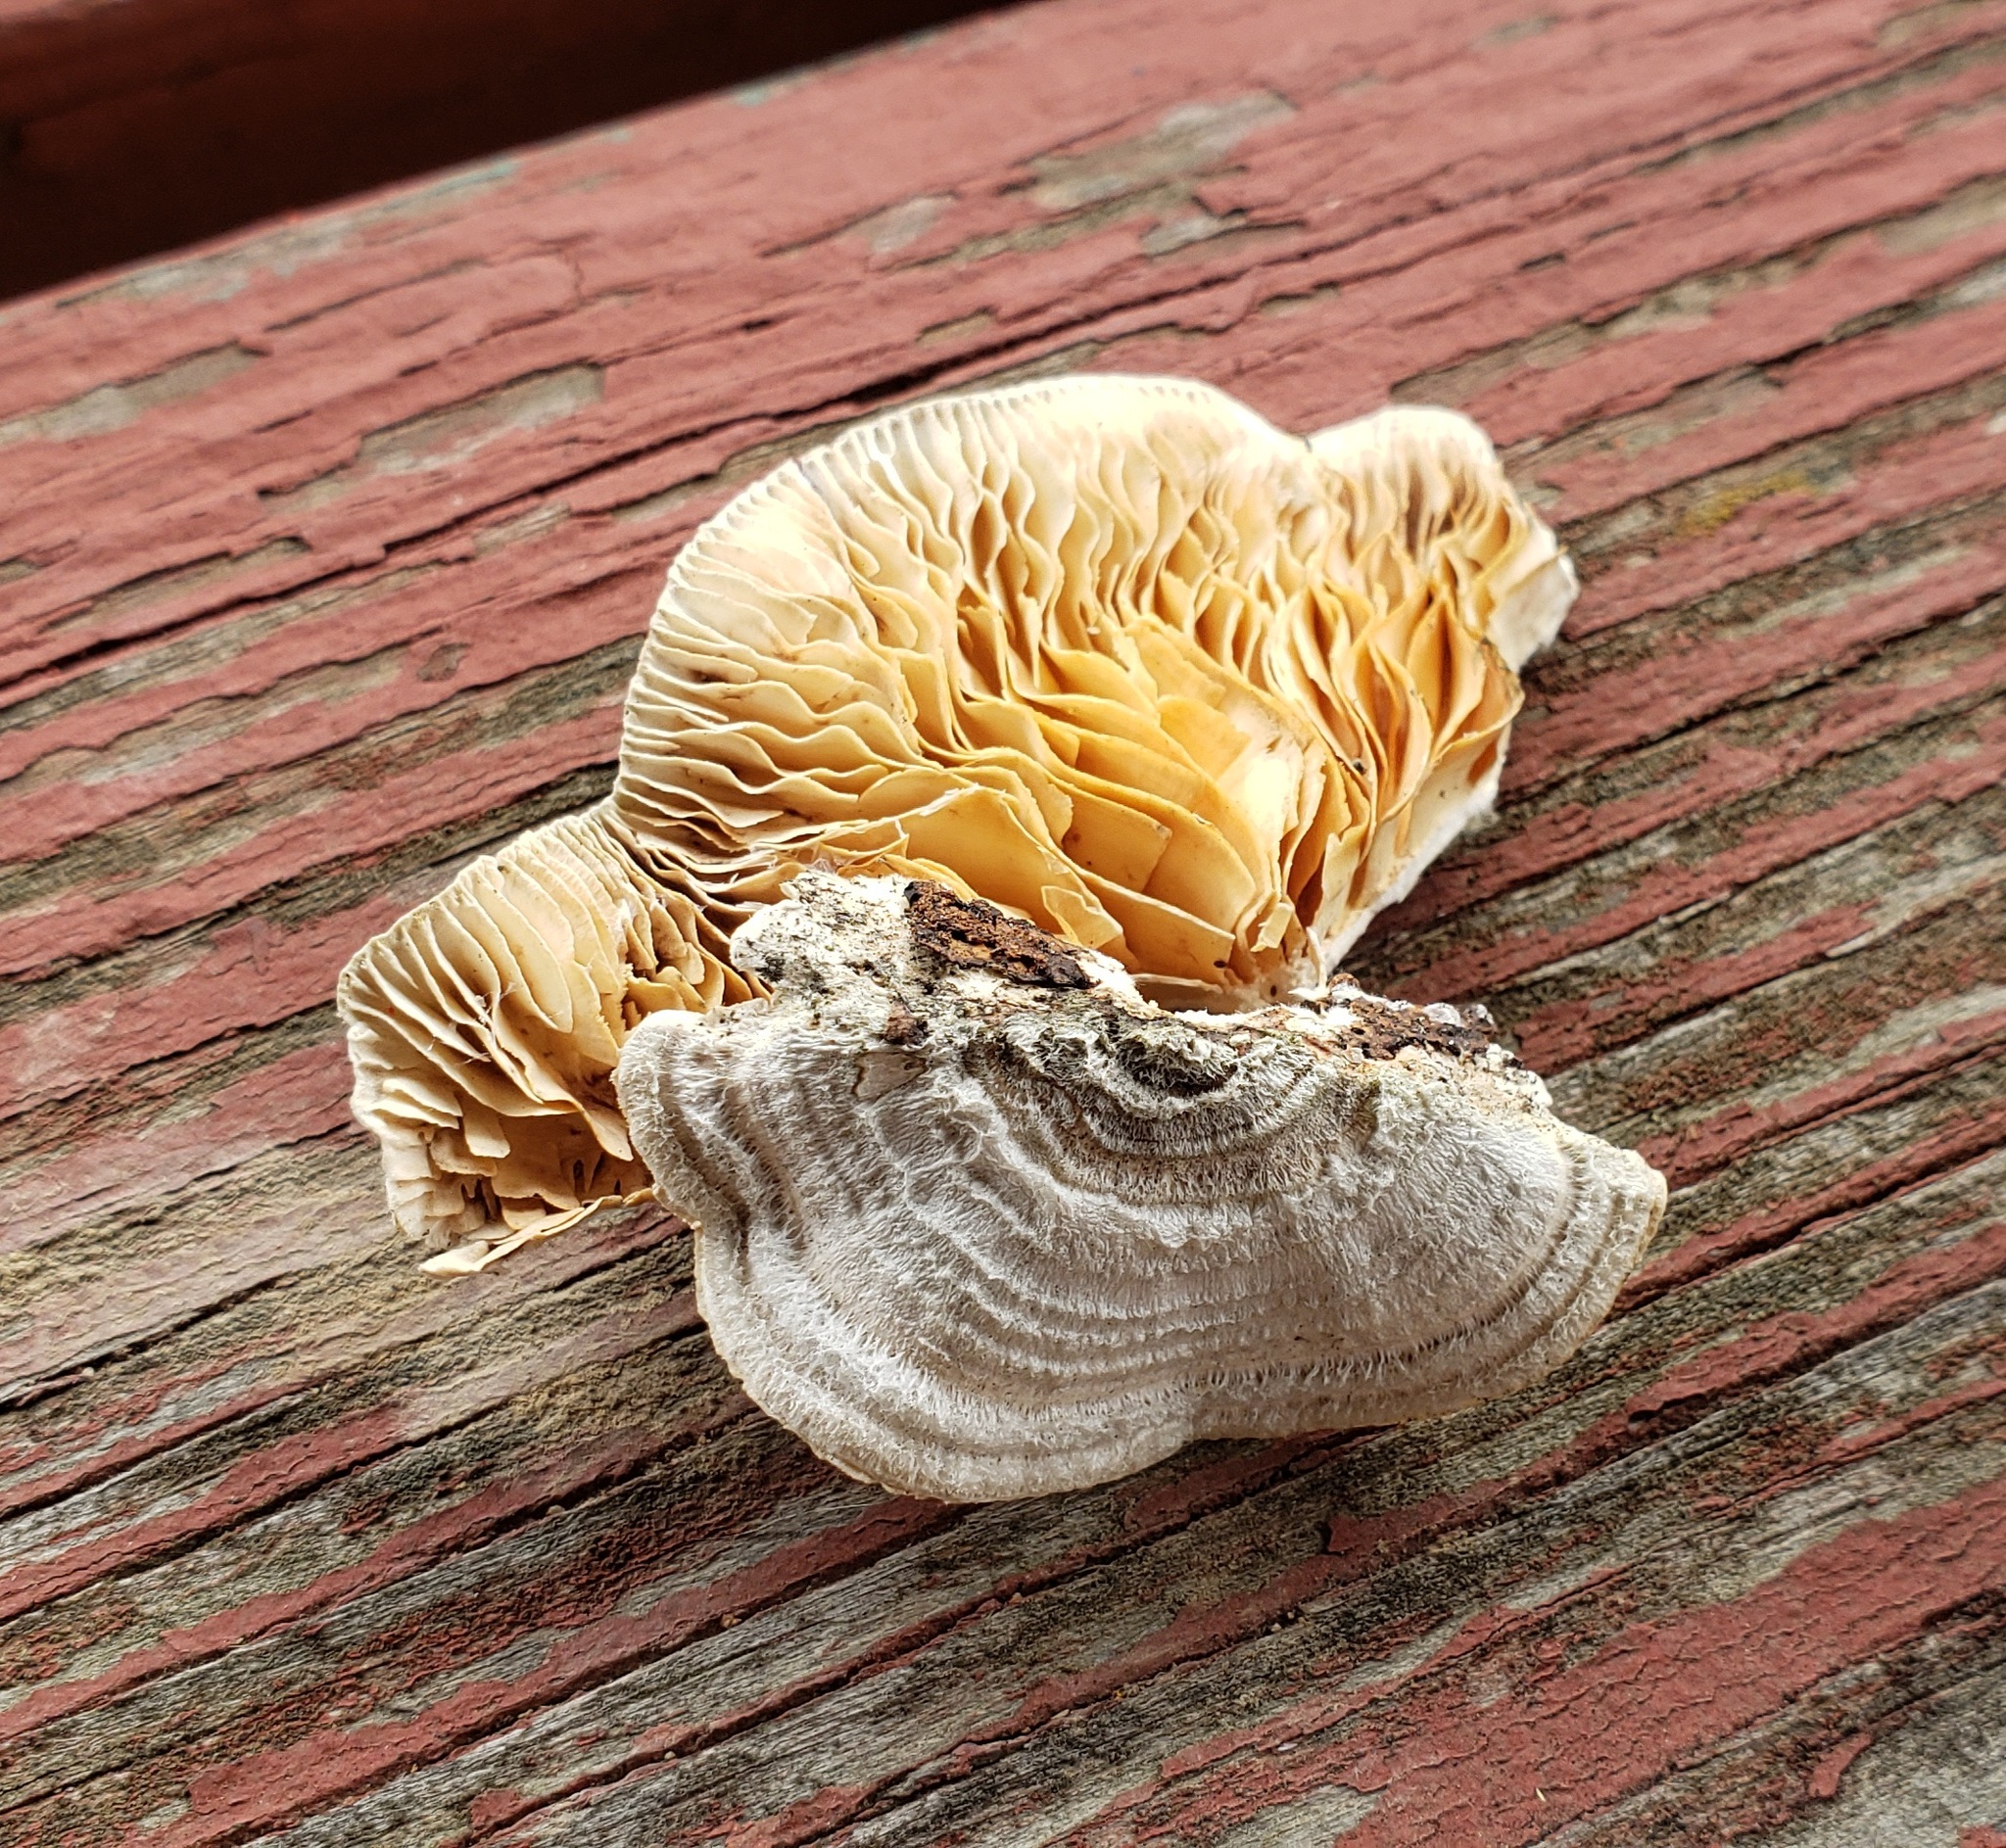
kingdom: Fungi
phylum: Basidiomycota
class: Agaricomycetes
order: Polyporales
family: Polyporaceae
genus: Lenzites
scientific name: Lenzites betulinus
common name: Birch mazegill
